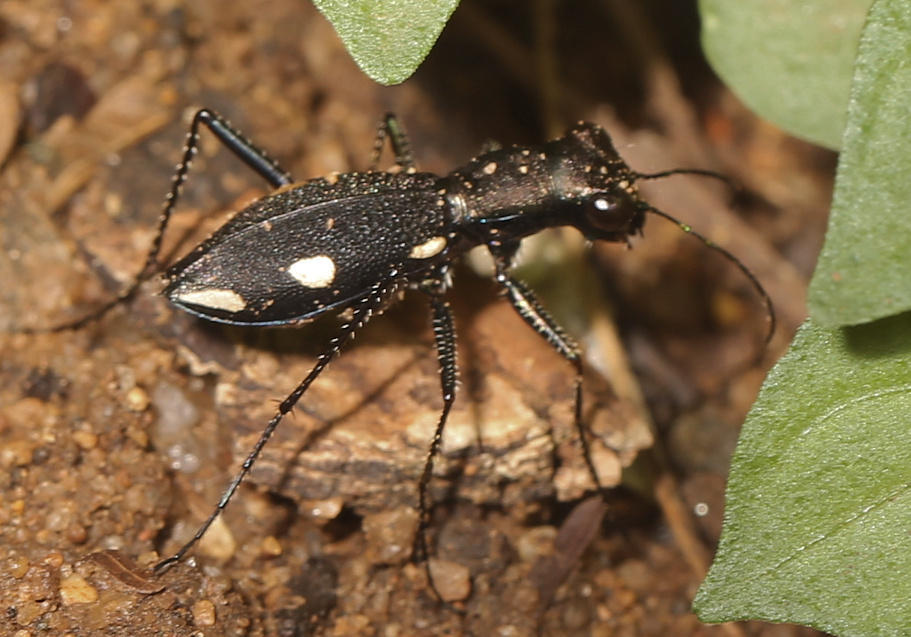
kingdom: Animalia
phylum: Arthropoda
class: Insecta
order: Coleoptera
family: Carabidae
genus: Dromica
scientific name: Dromica sexmaculata
